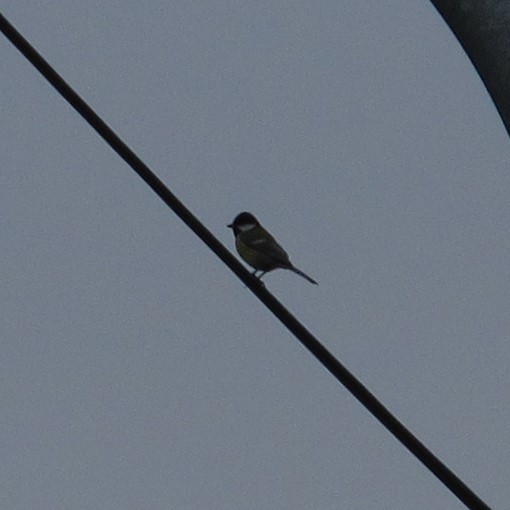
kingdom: Animalia
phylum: Chordata
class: Aves
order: Passeriformes
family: Paridae
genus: Parus
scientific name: Parus major
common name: Great tit
